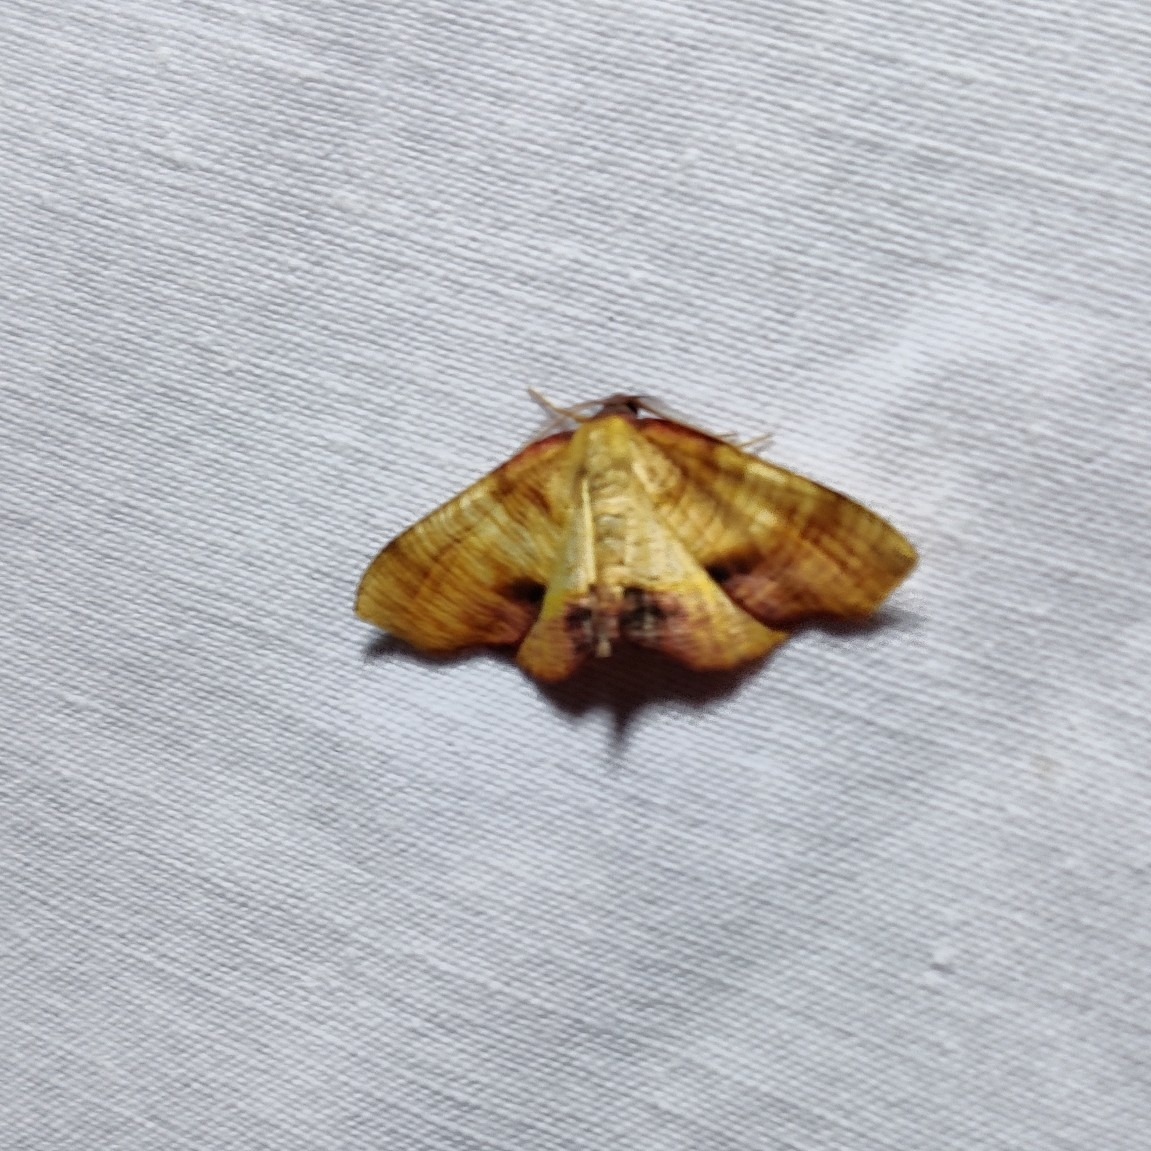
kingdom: Animalia
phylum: Arthropoda
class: Insecta
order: Lepidoptera
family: Geometridae
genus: Plagodis
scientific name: Plagodis dolabraria
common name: Scorched wing
